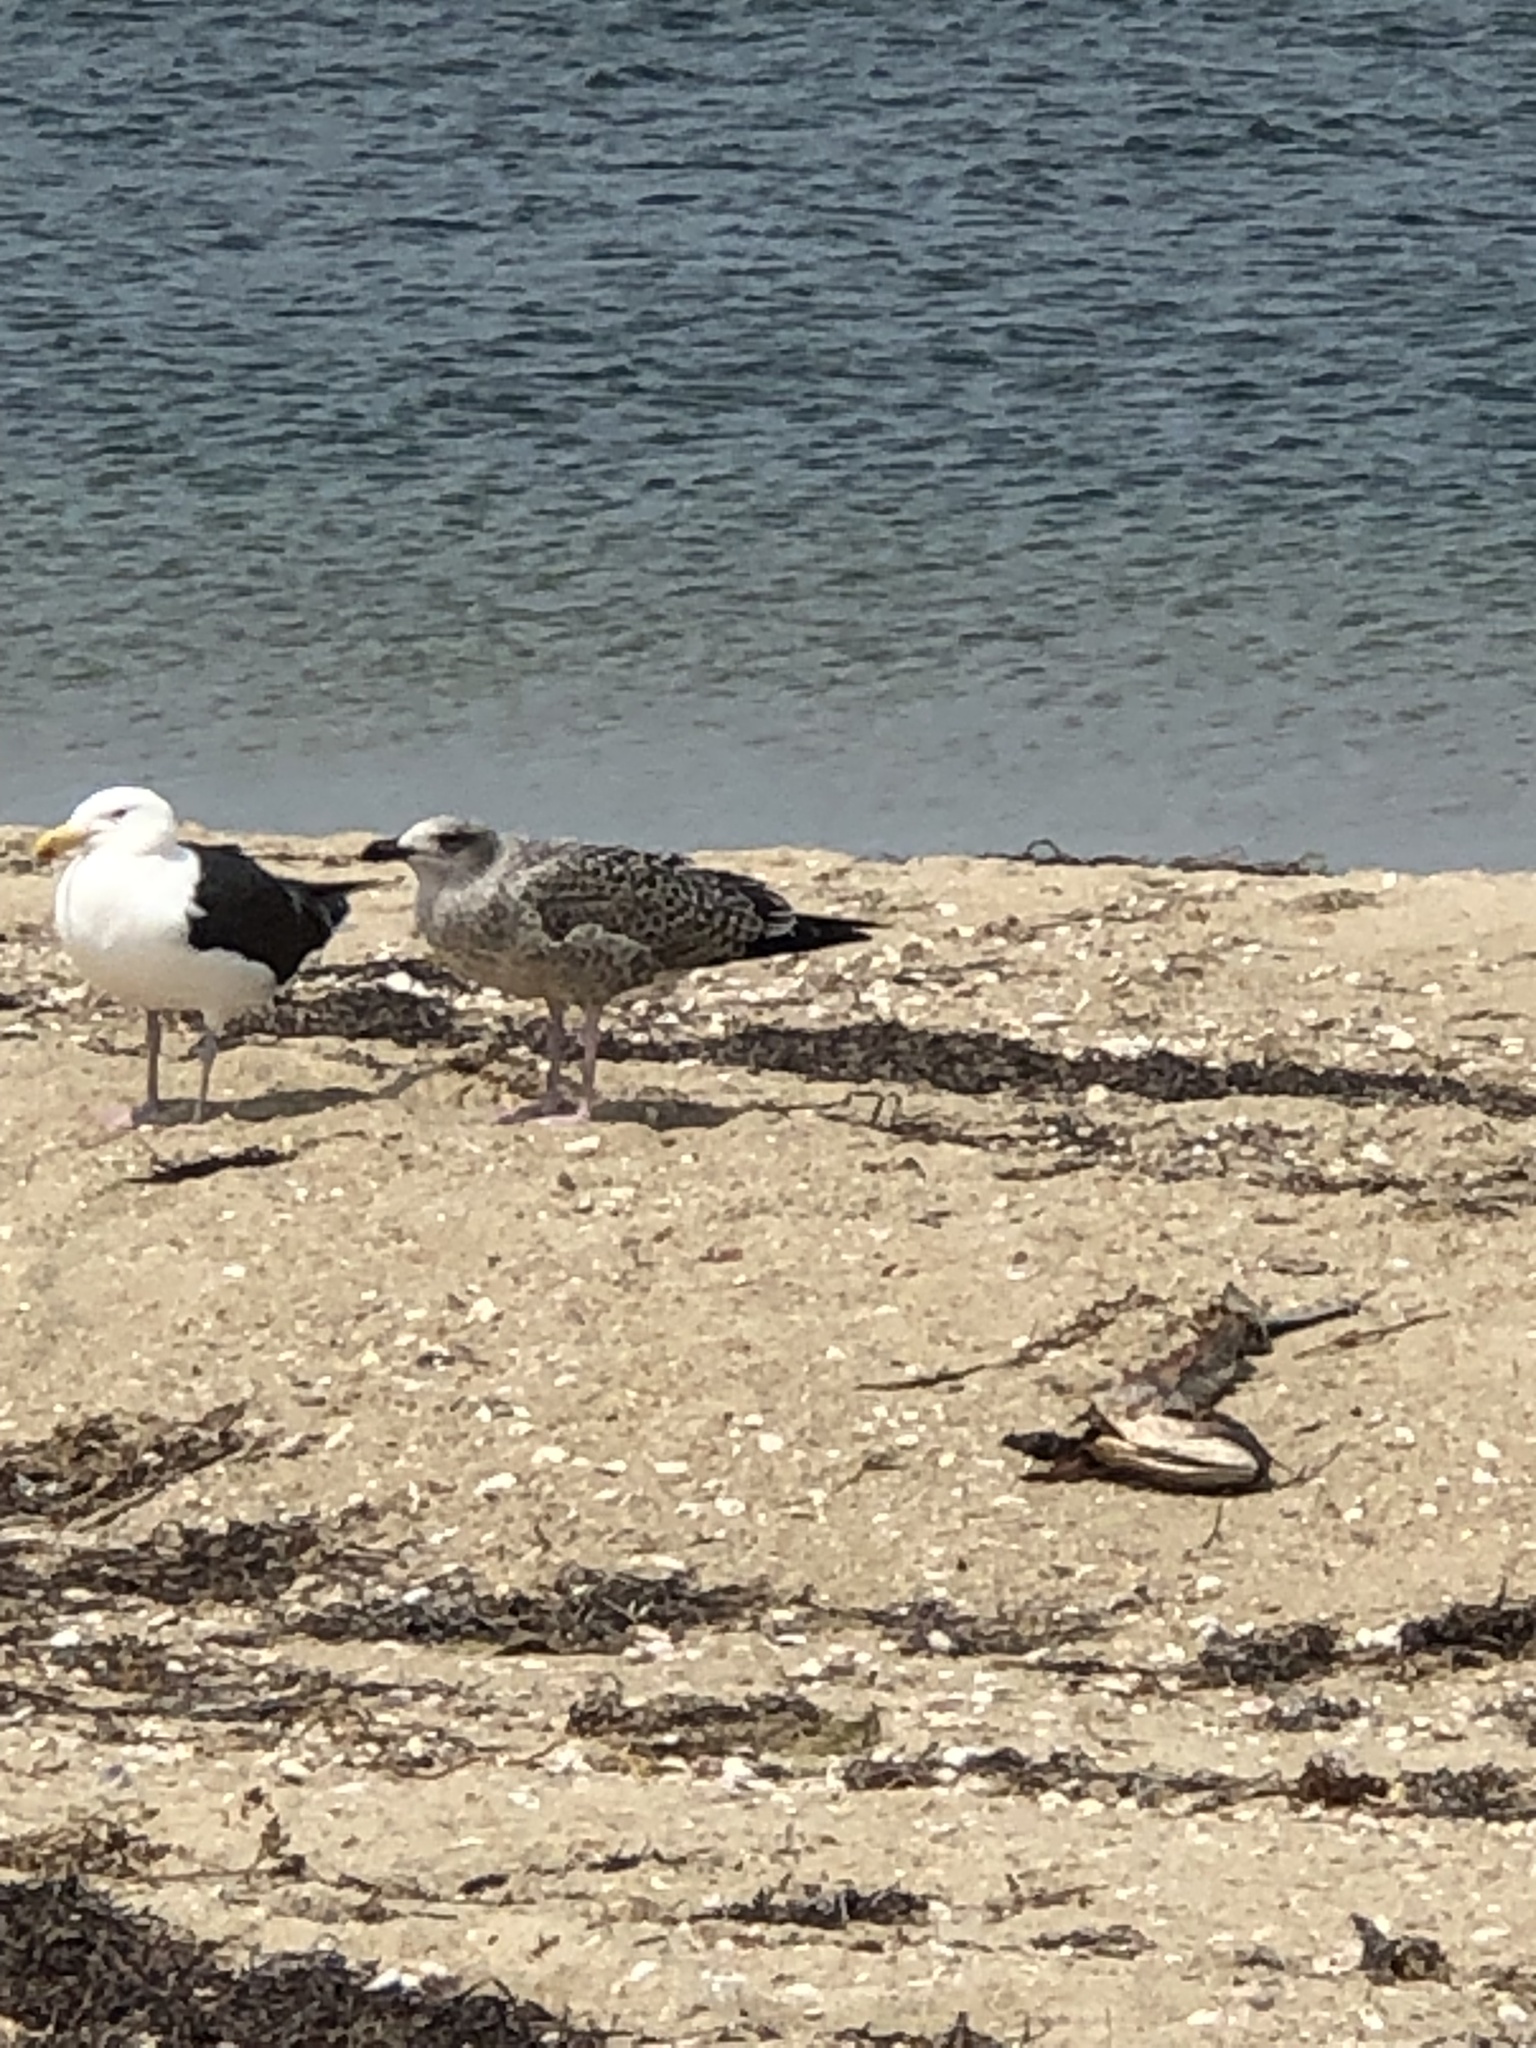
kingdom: Animalia
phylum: Chordata
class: Aves
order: Charadriiformes
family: Laridae
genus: Larus
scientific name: Larus marinus
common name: Great black-backed gull
